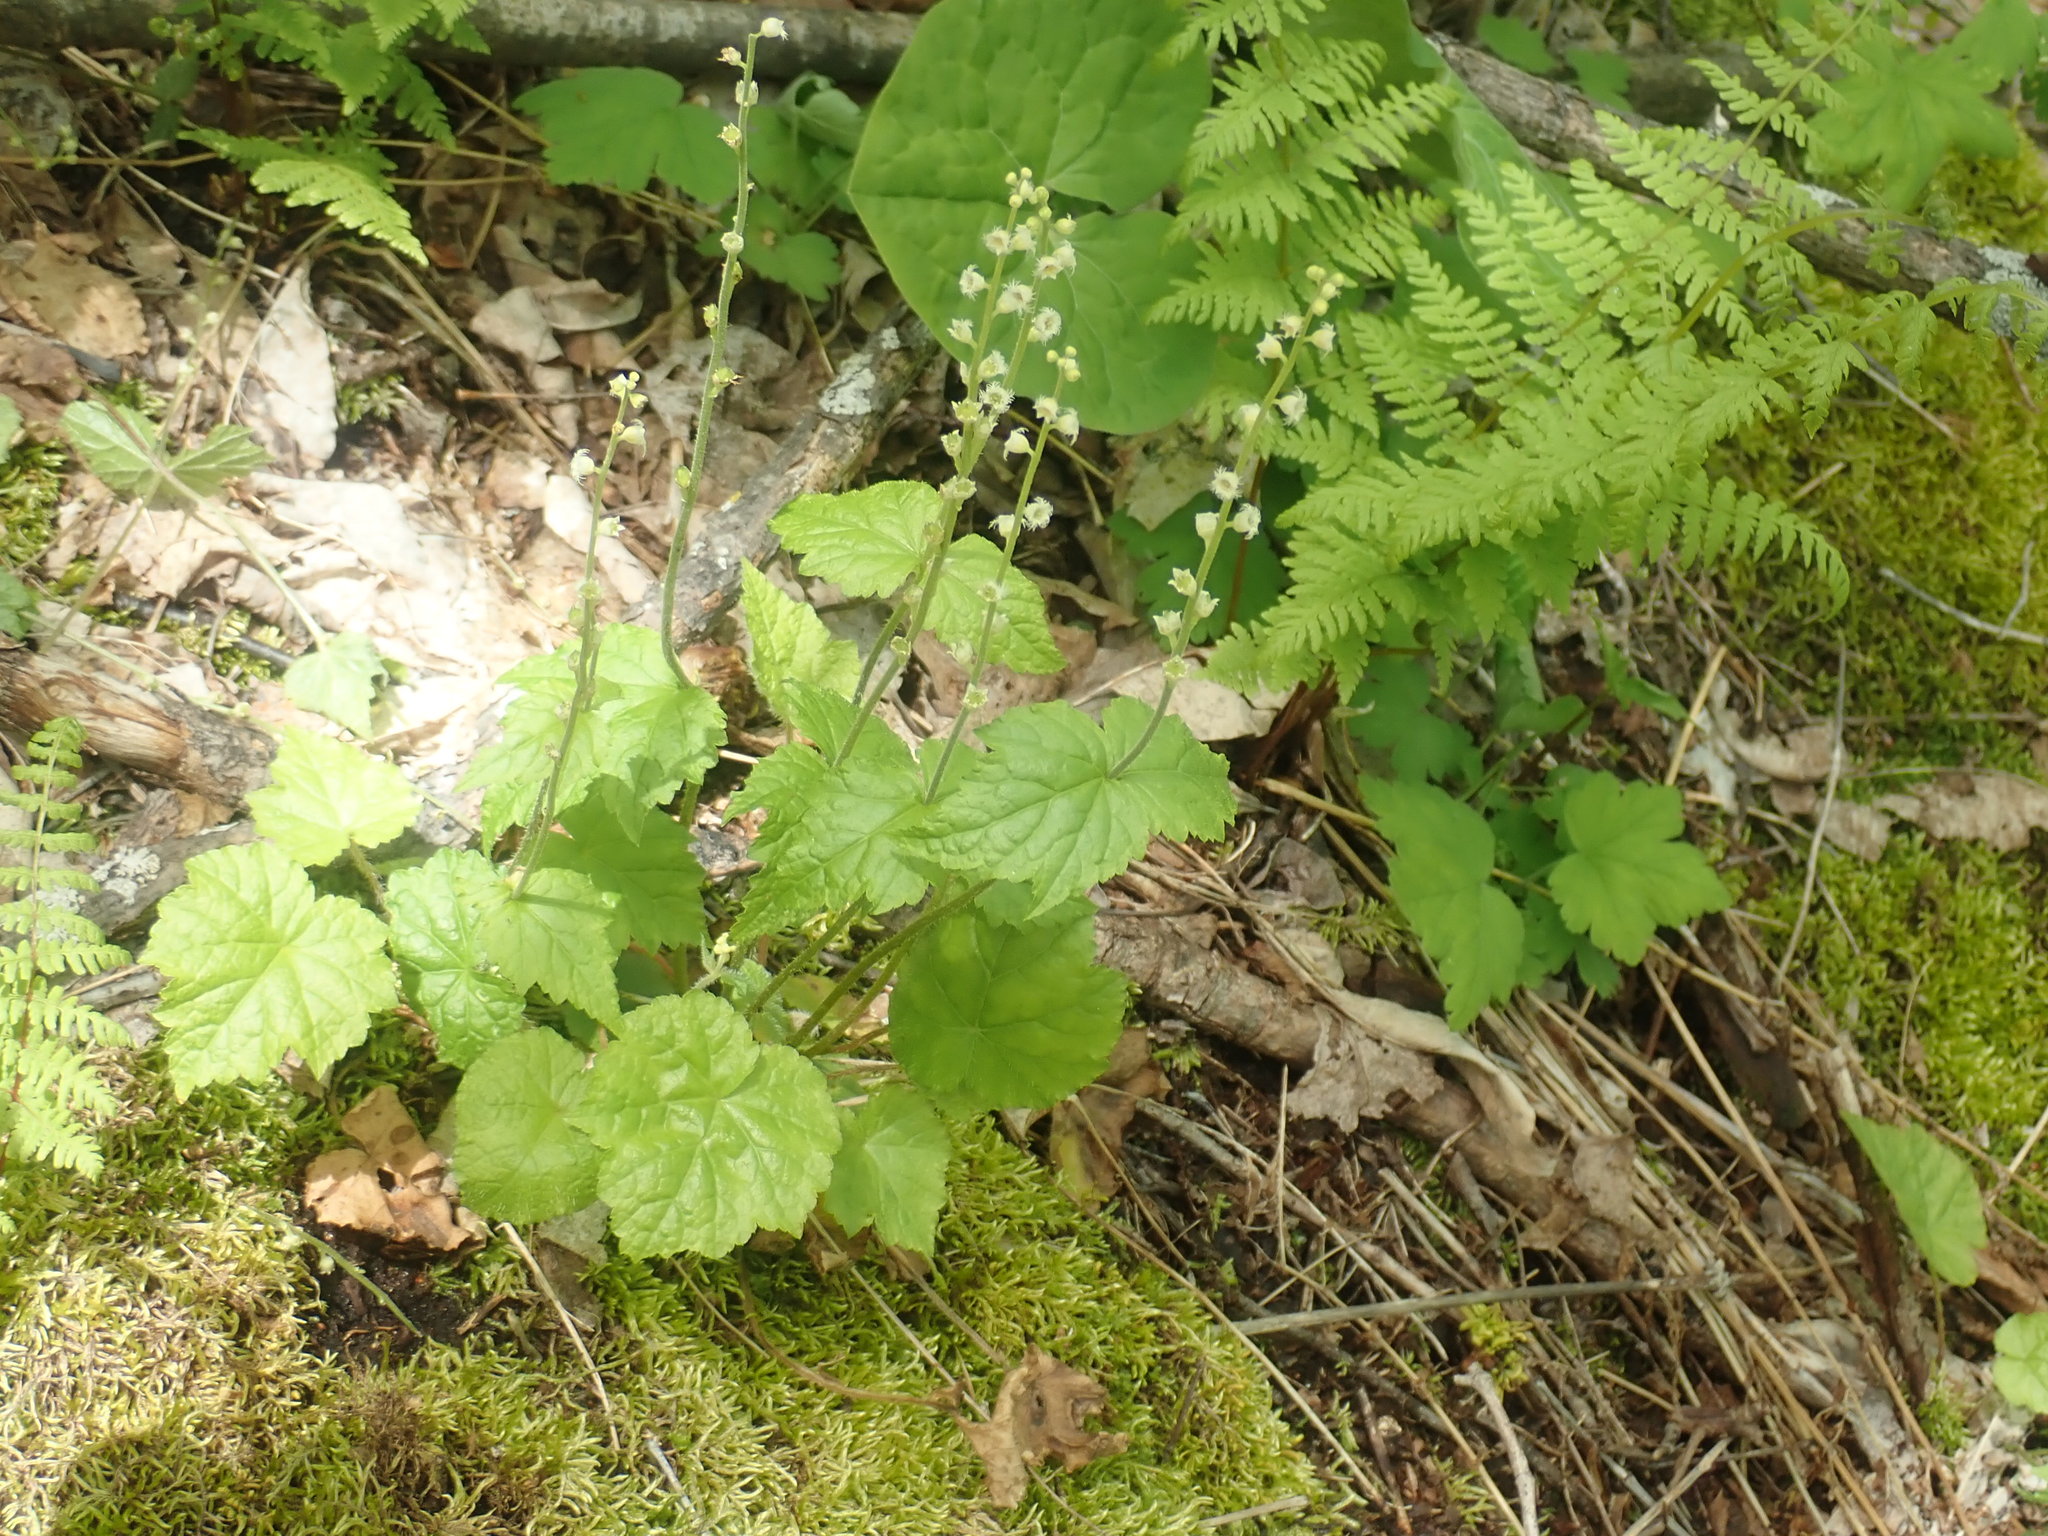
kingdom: Plantae
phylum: Tracheophyta
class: Magnoliopsida
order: Saxifragales
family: Saxifragaceae
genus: Mitella
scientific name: Mitella diphylla
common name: Coolwort
